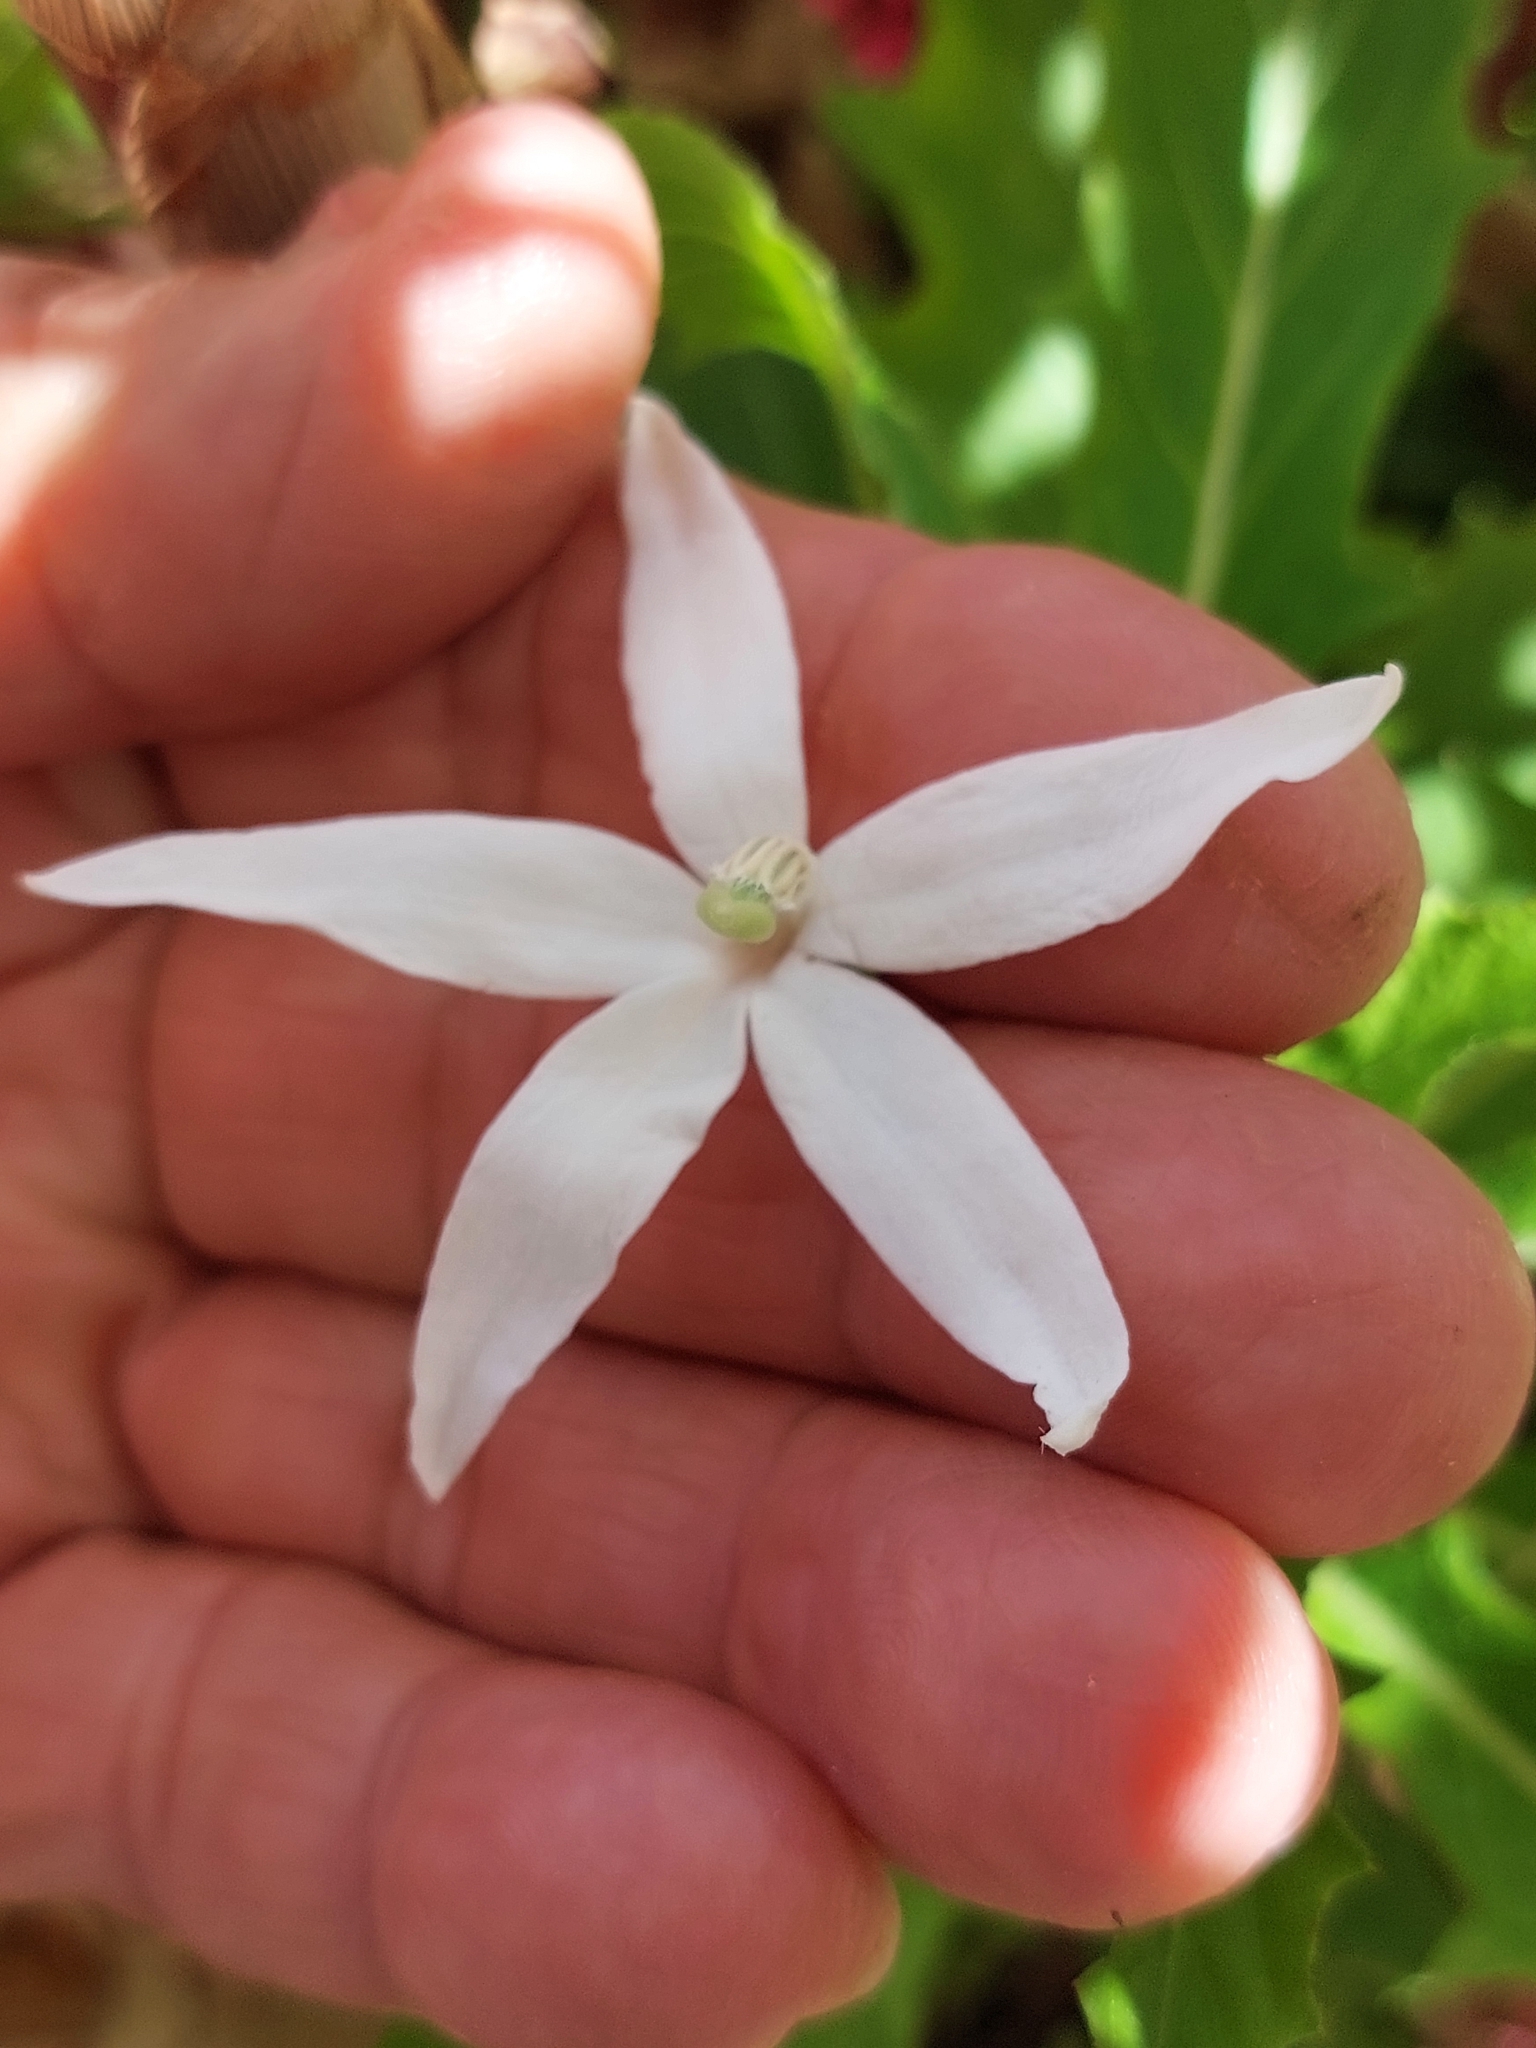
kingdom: Plantae
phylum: Tracheophyta
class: Magnoliopsida
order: Asterales
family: Campanulaceae
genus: Hippobroma
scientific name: Hippobroma longiflora
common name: Madamfate
